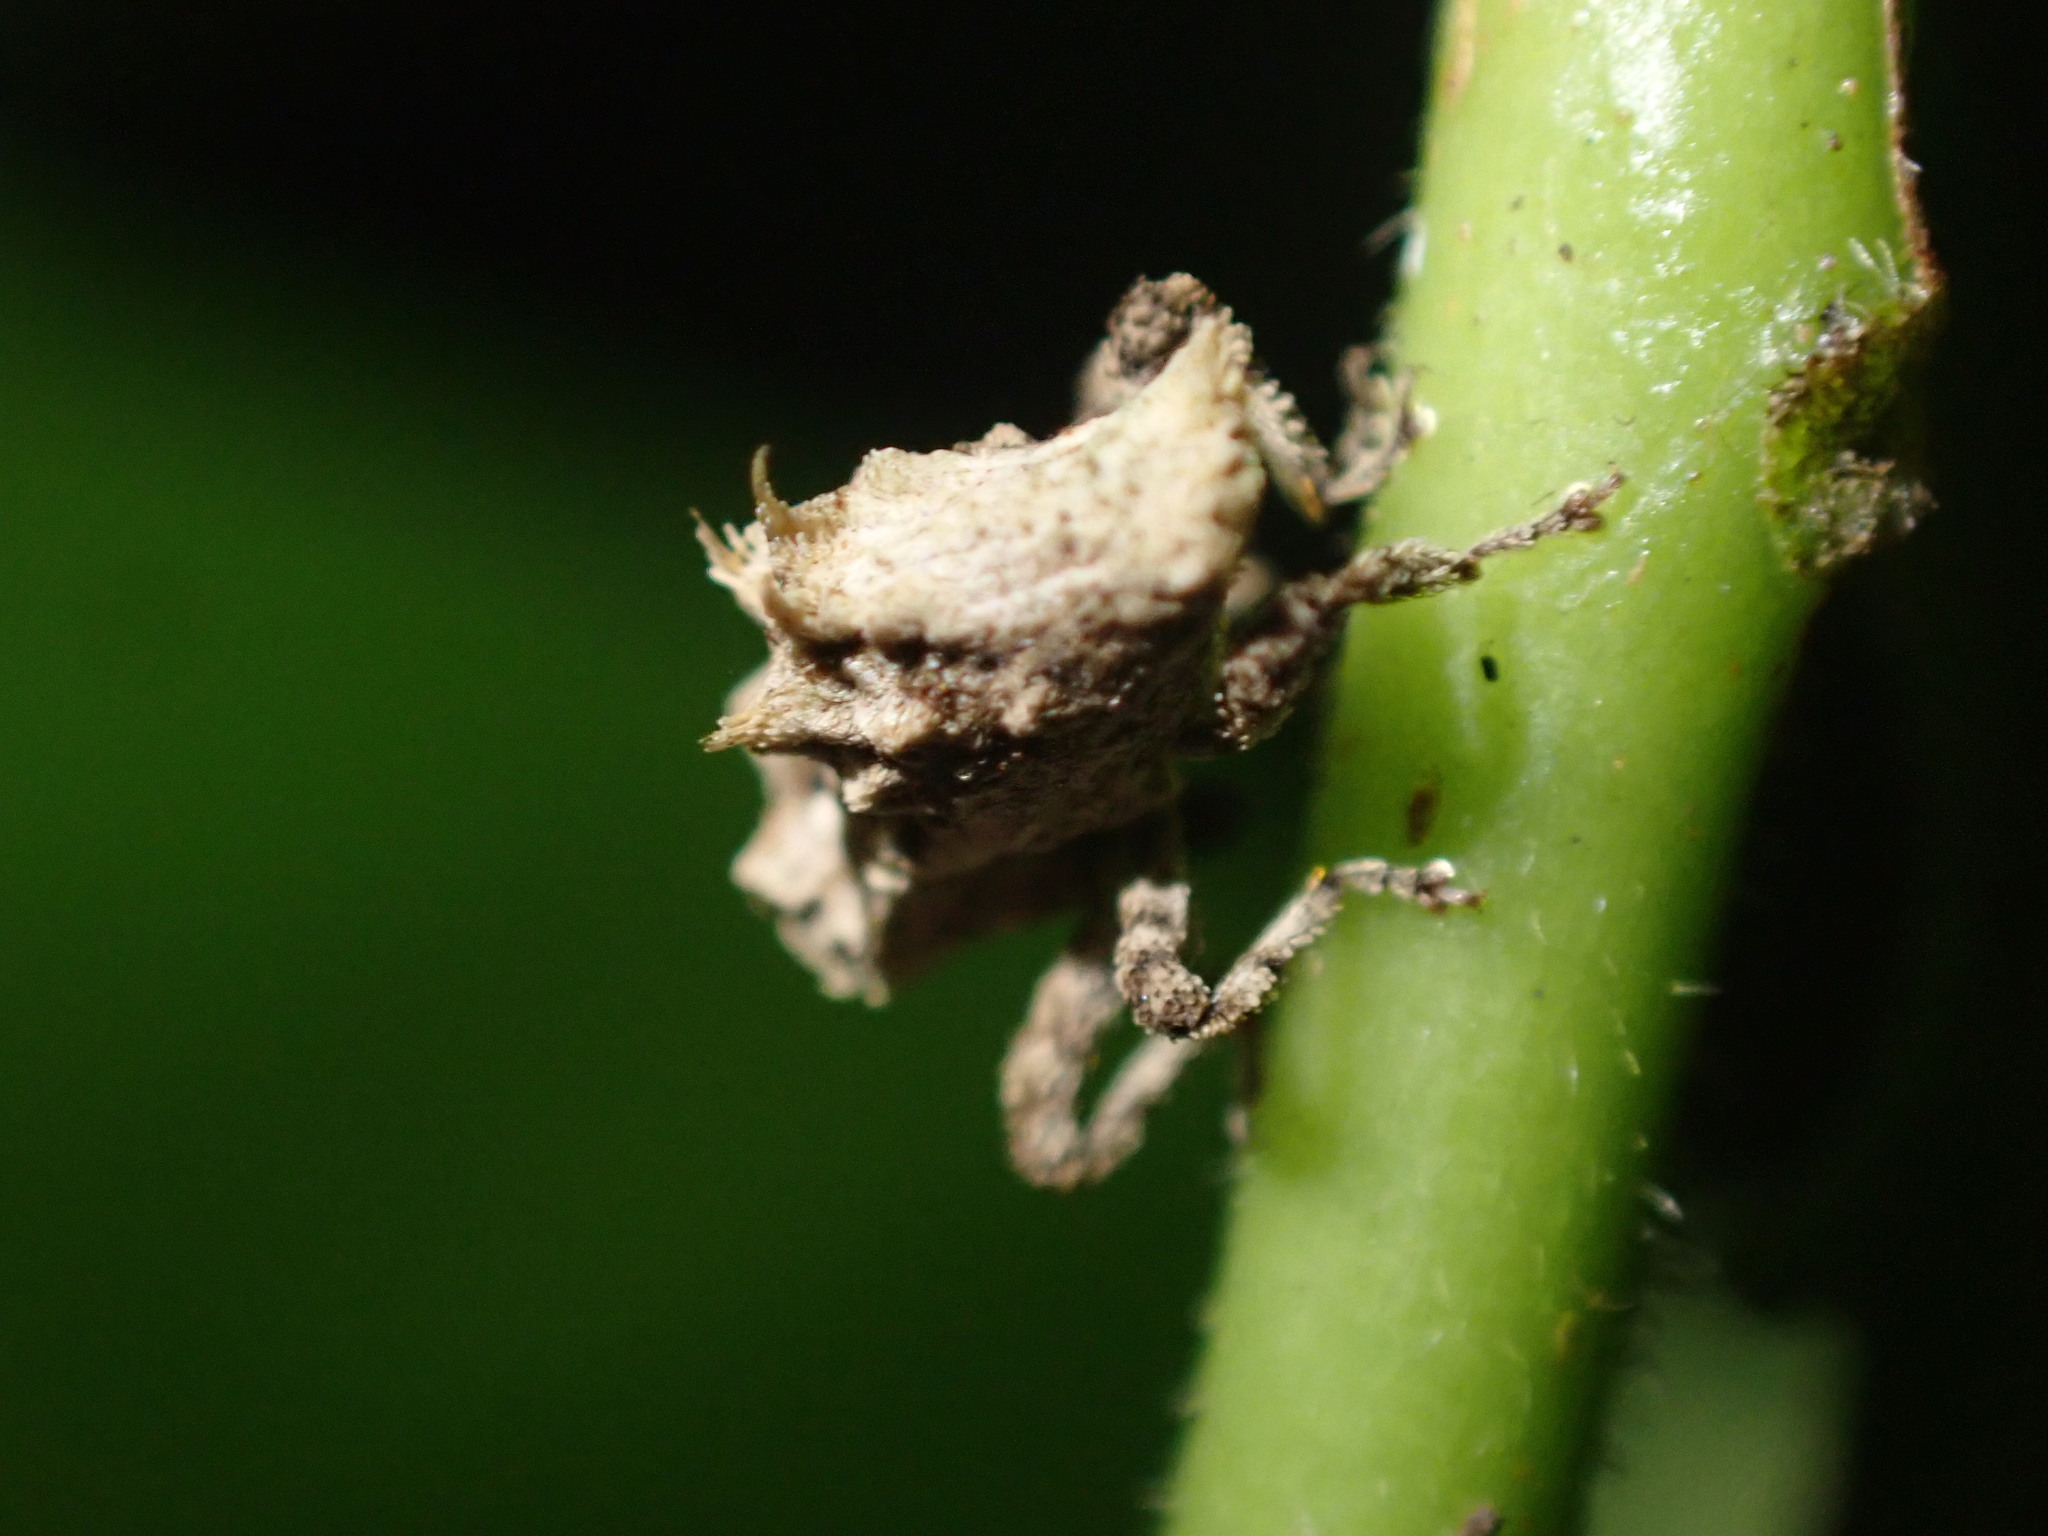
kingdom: Animalia
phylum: Arthropoda
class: Insecta
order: Coleoptera
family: Curculionidae
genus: Indecentia
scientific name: Indecentia nubila
